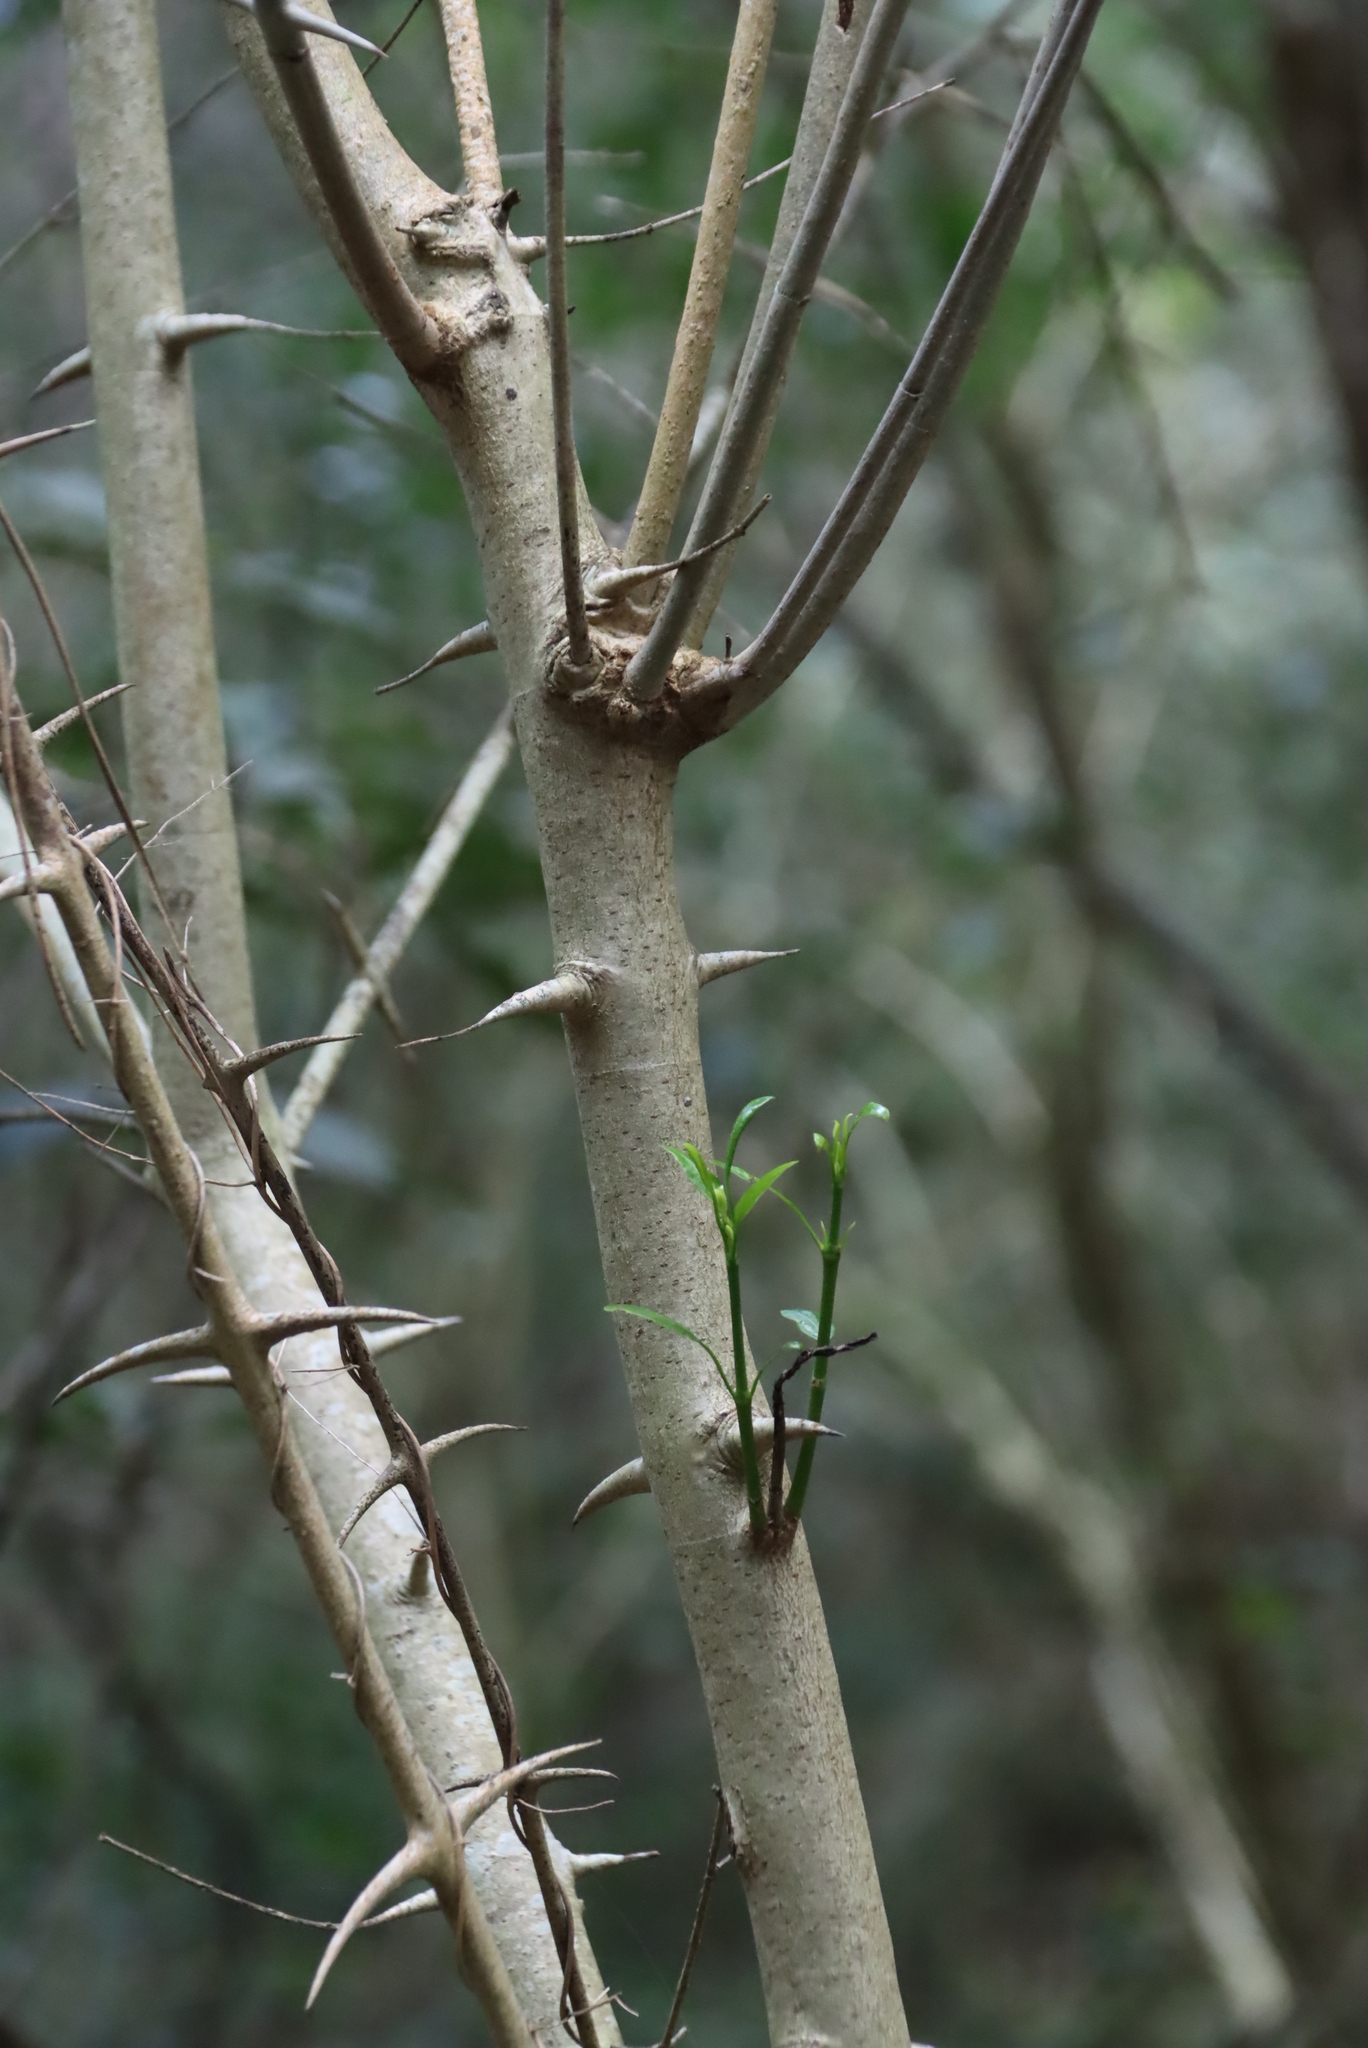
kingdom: Plantae
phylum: Tracheophyta
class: Magnoliopsida
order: Gentianales
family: Rubiaceae
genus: Canthium
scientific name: Canthium inerme
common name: Unarmed turkey-berry
